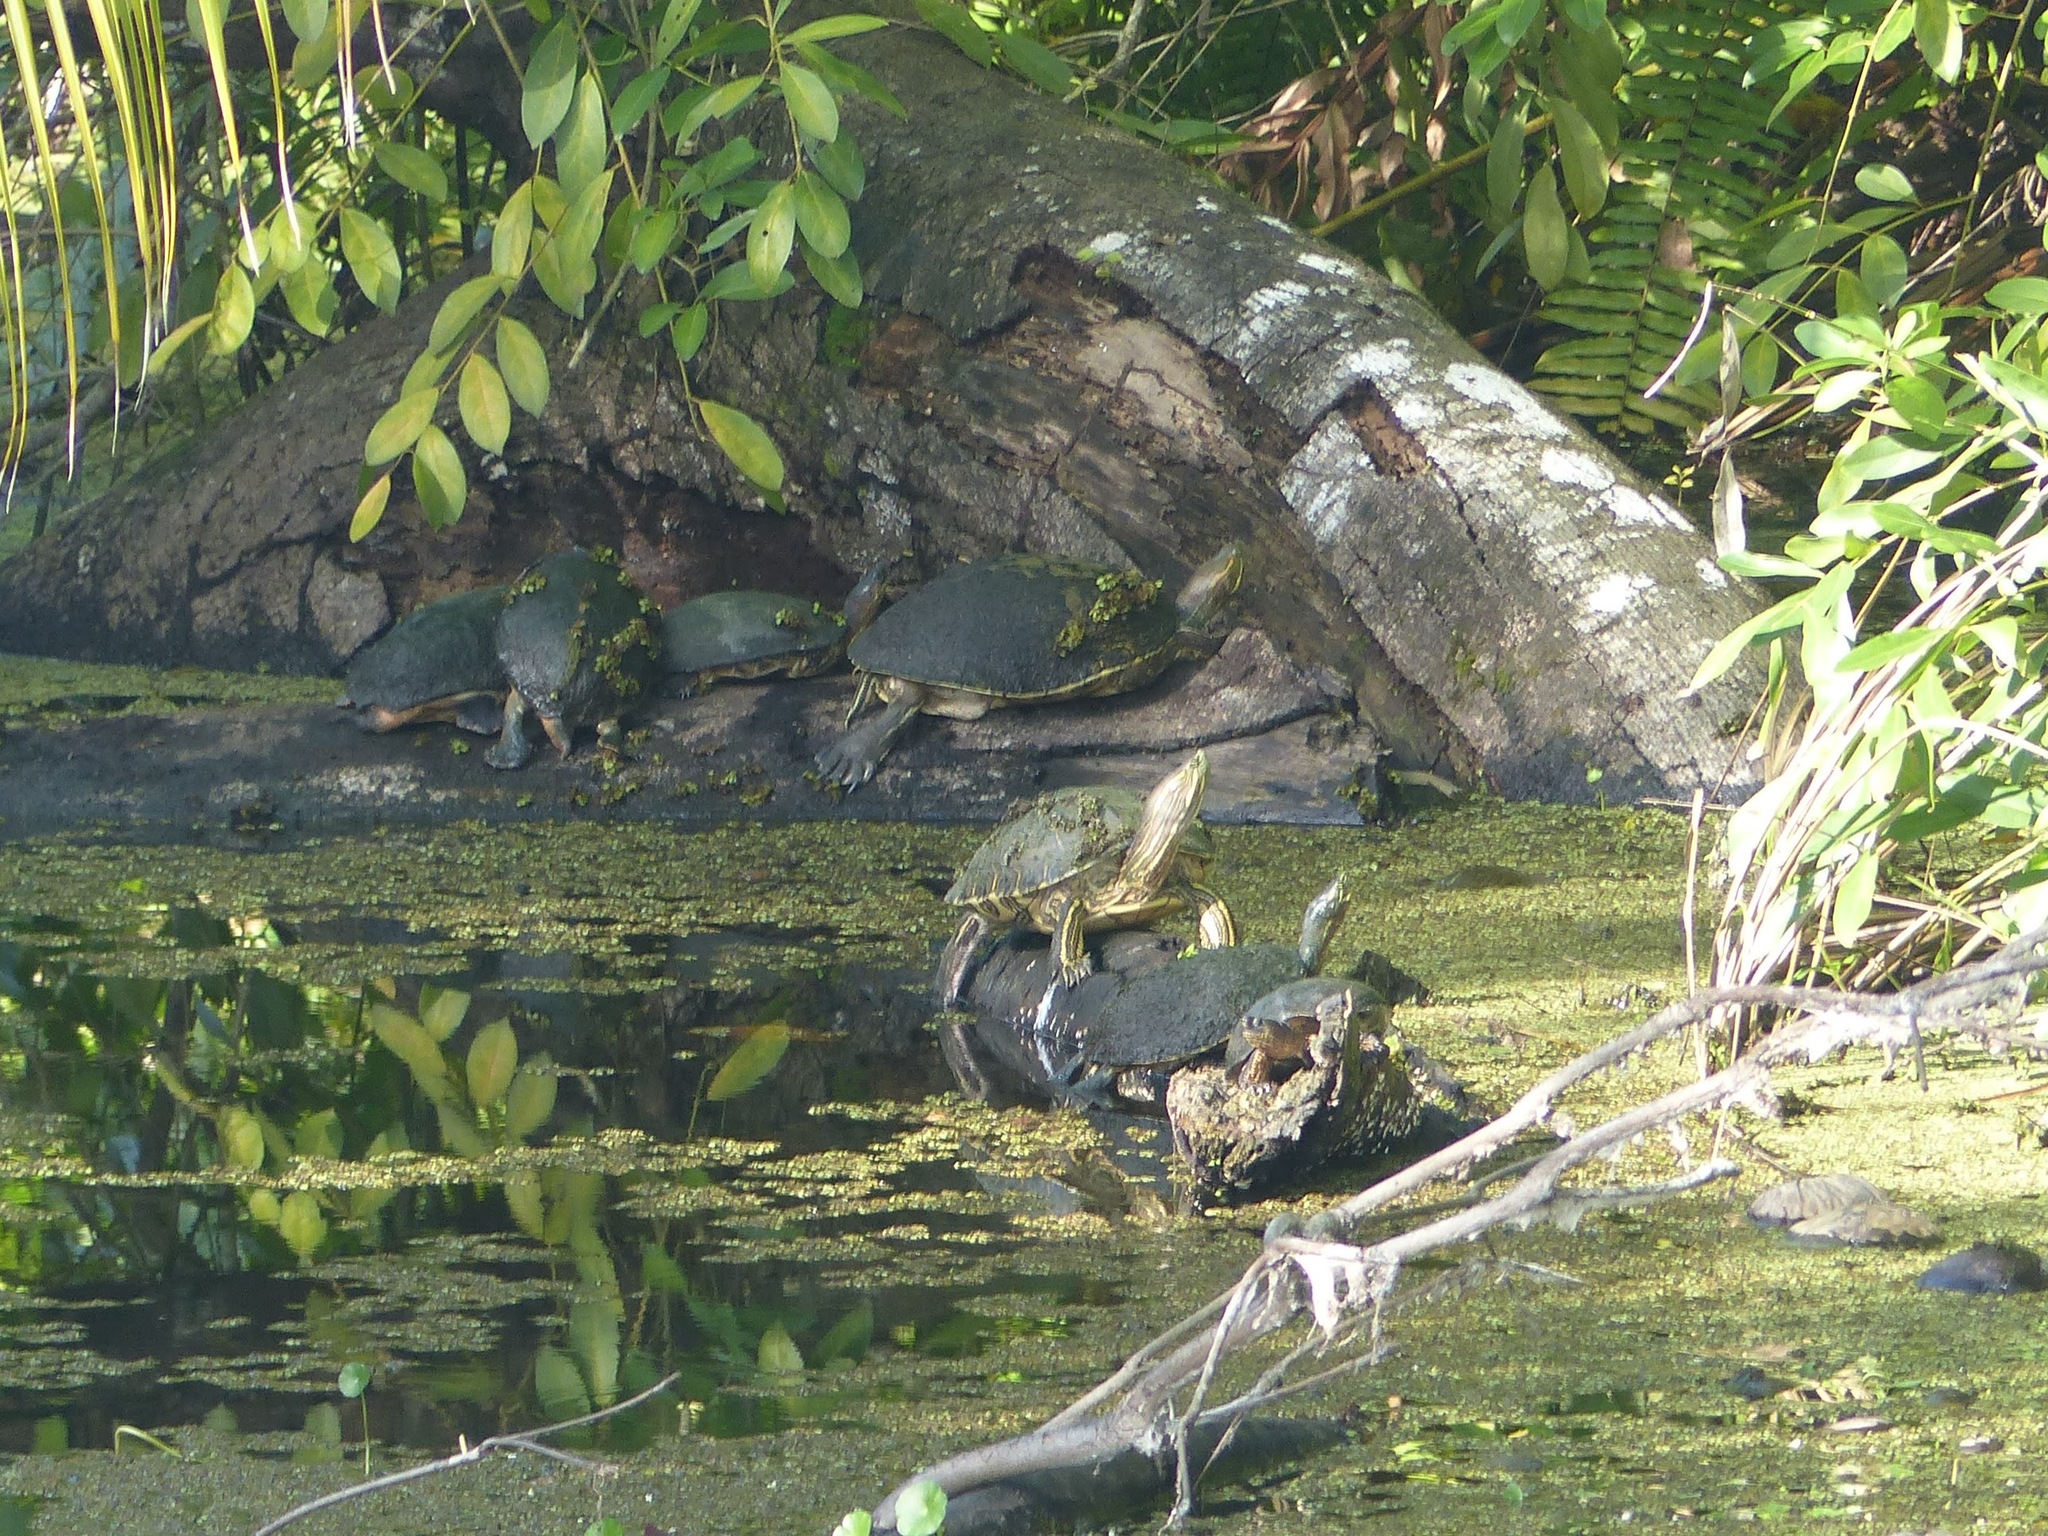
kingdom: Animalia
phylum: Chordata
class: Testudines
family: Emydidae
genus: Trachemys
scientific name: Trachemys venusta
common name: Mesoamerican slider
